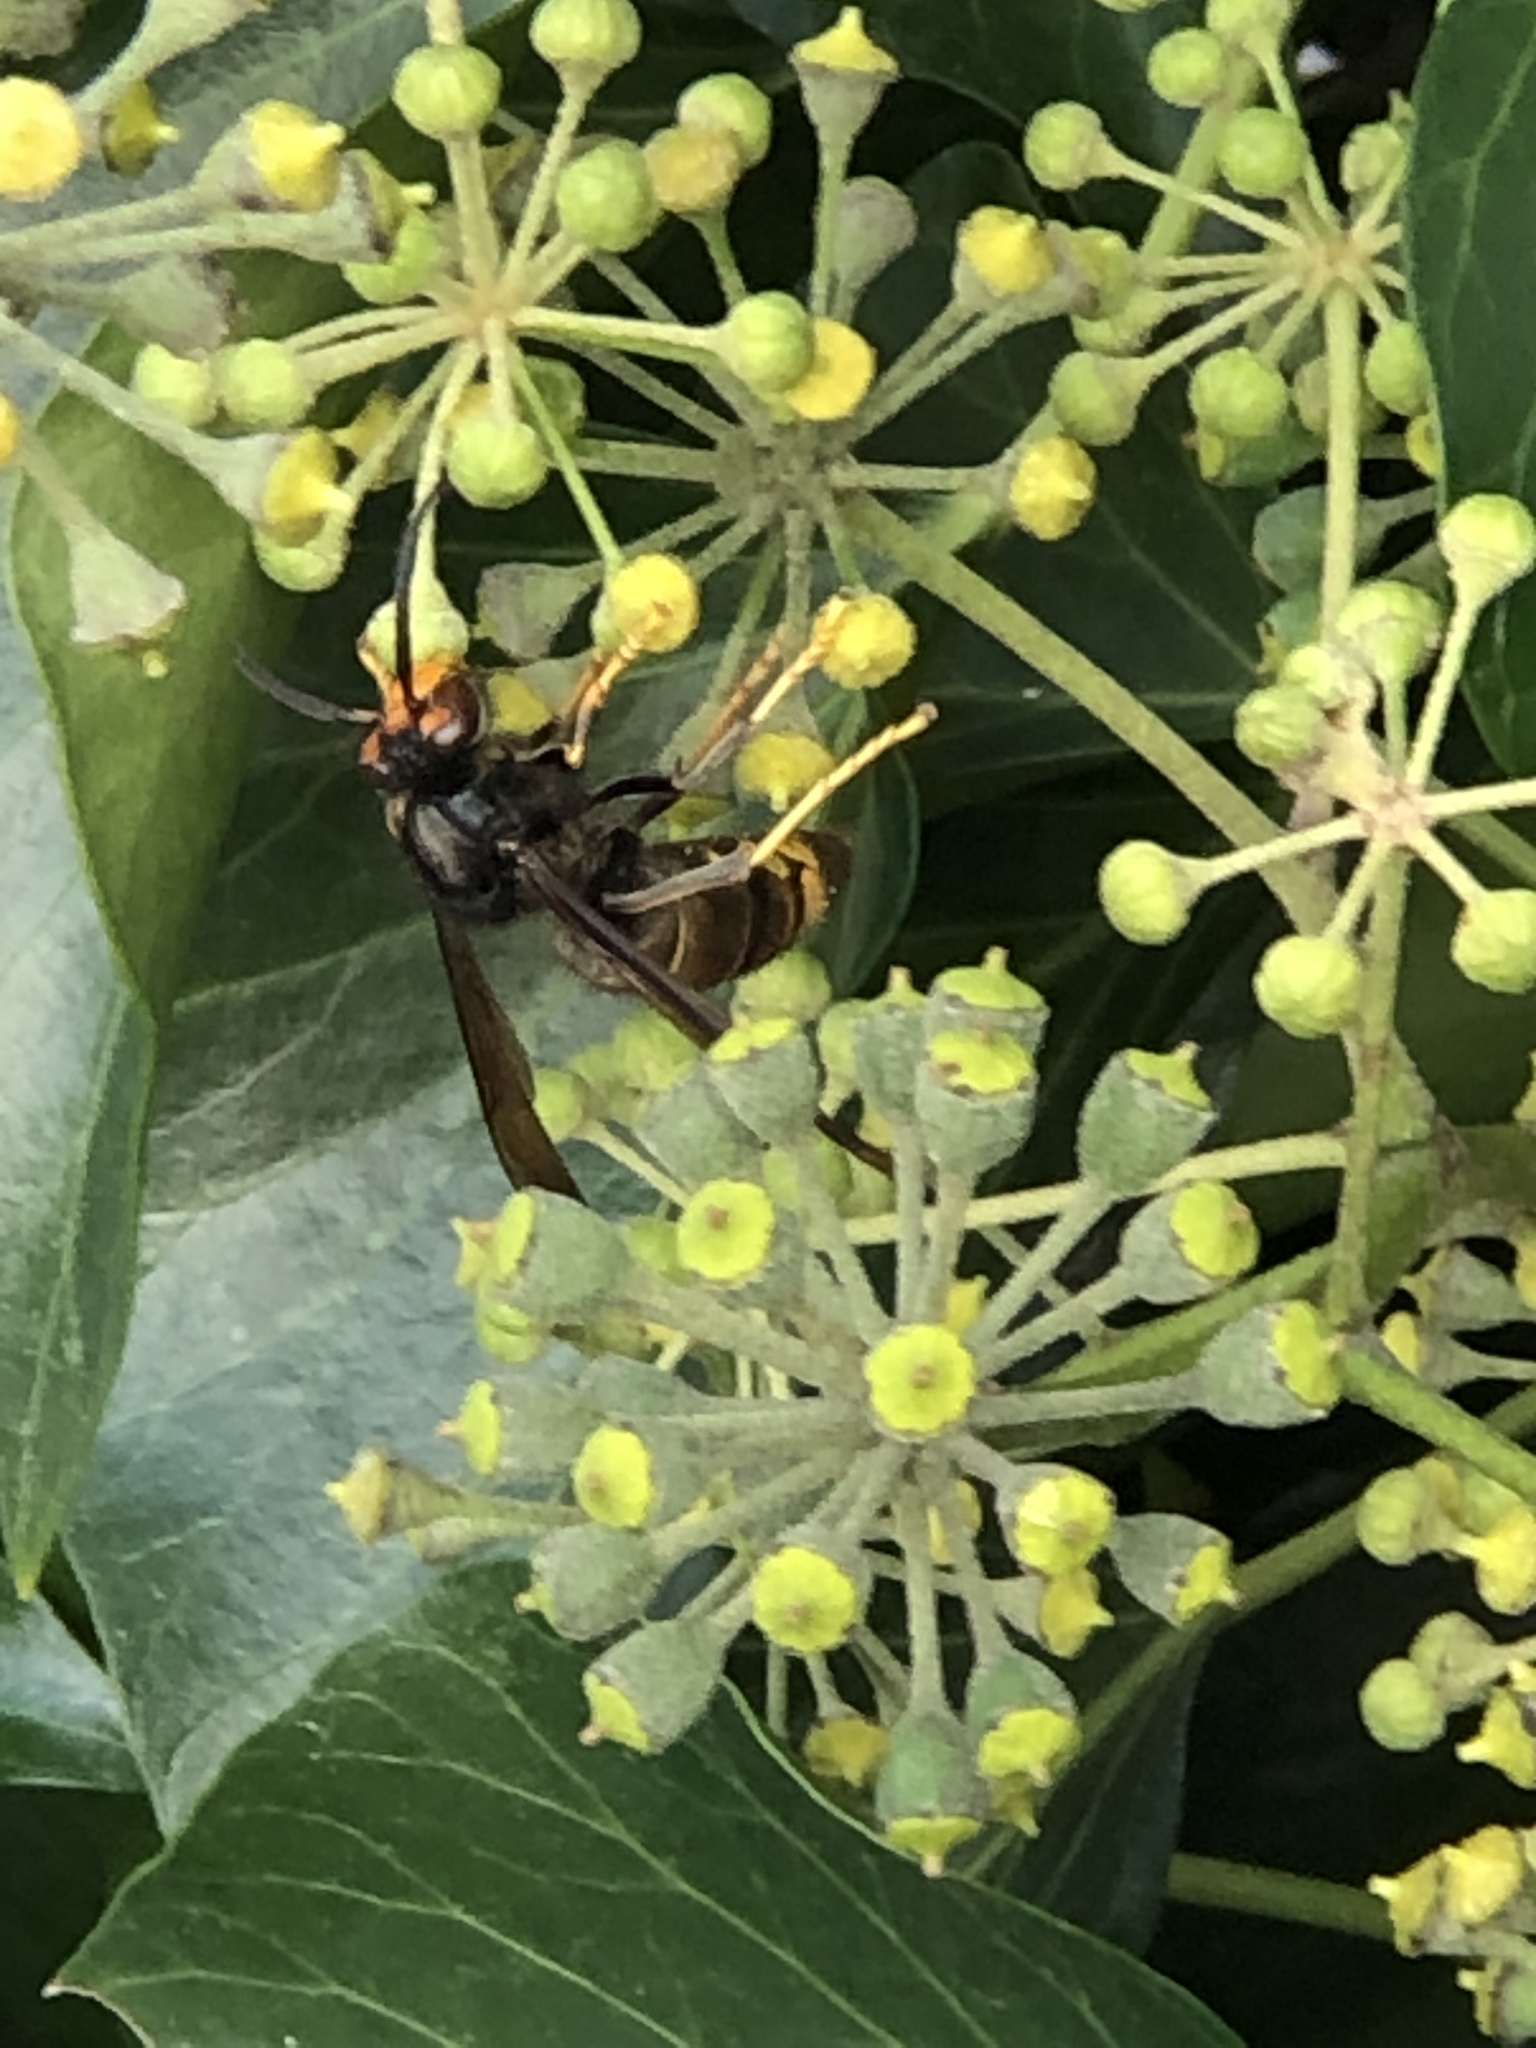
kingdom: Animalia
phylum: Arthropoda
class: Insecta
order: Hymenoptera
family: Vespidae
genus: Vespa
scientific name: Vespa velutina
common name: Asian hornet
